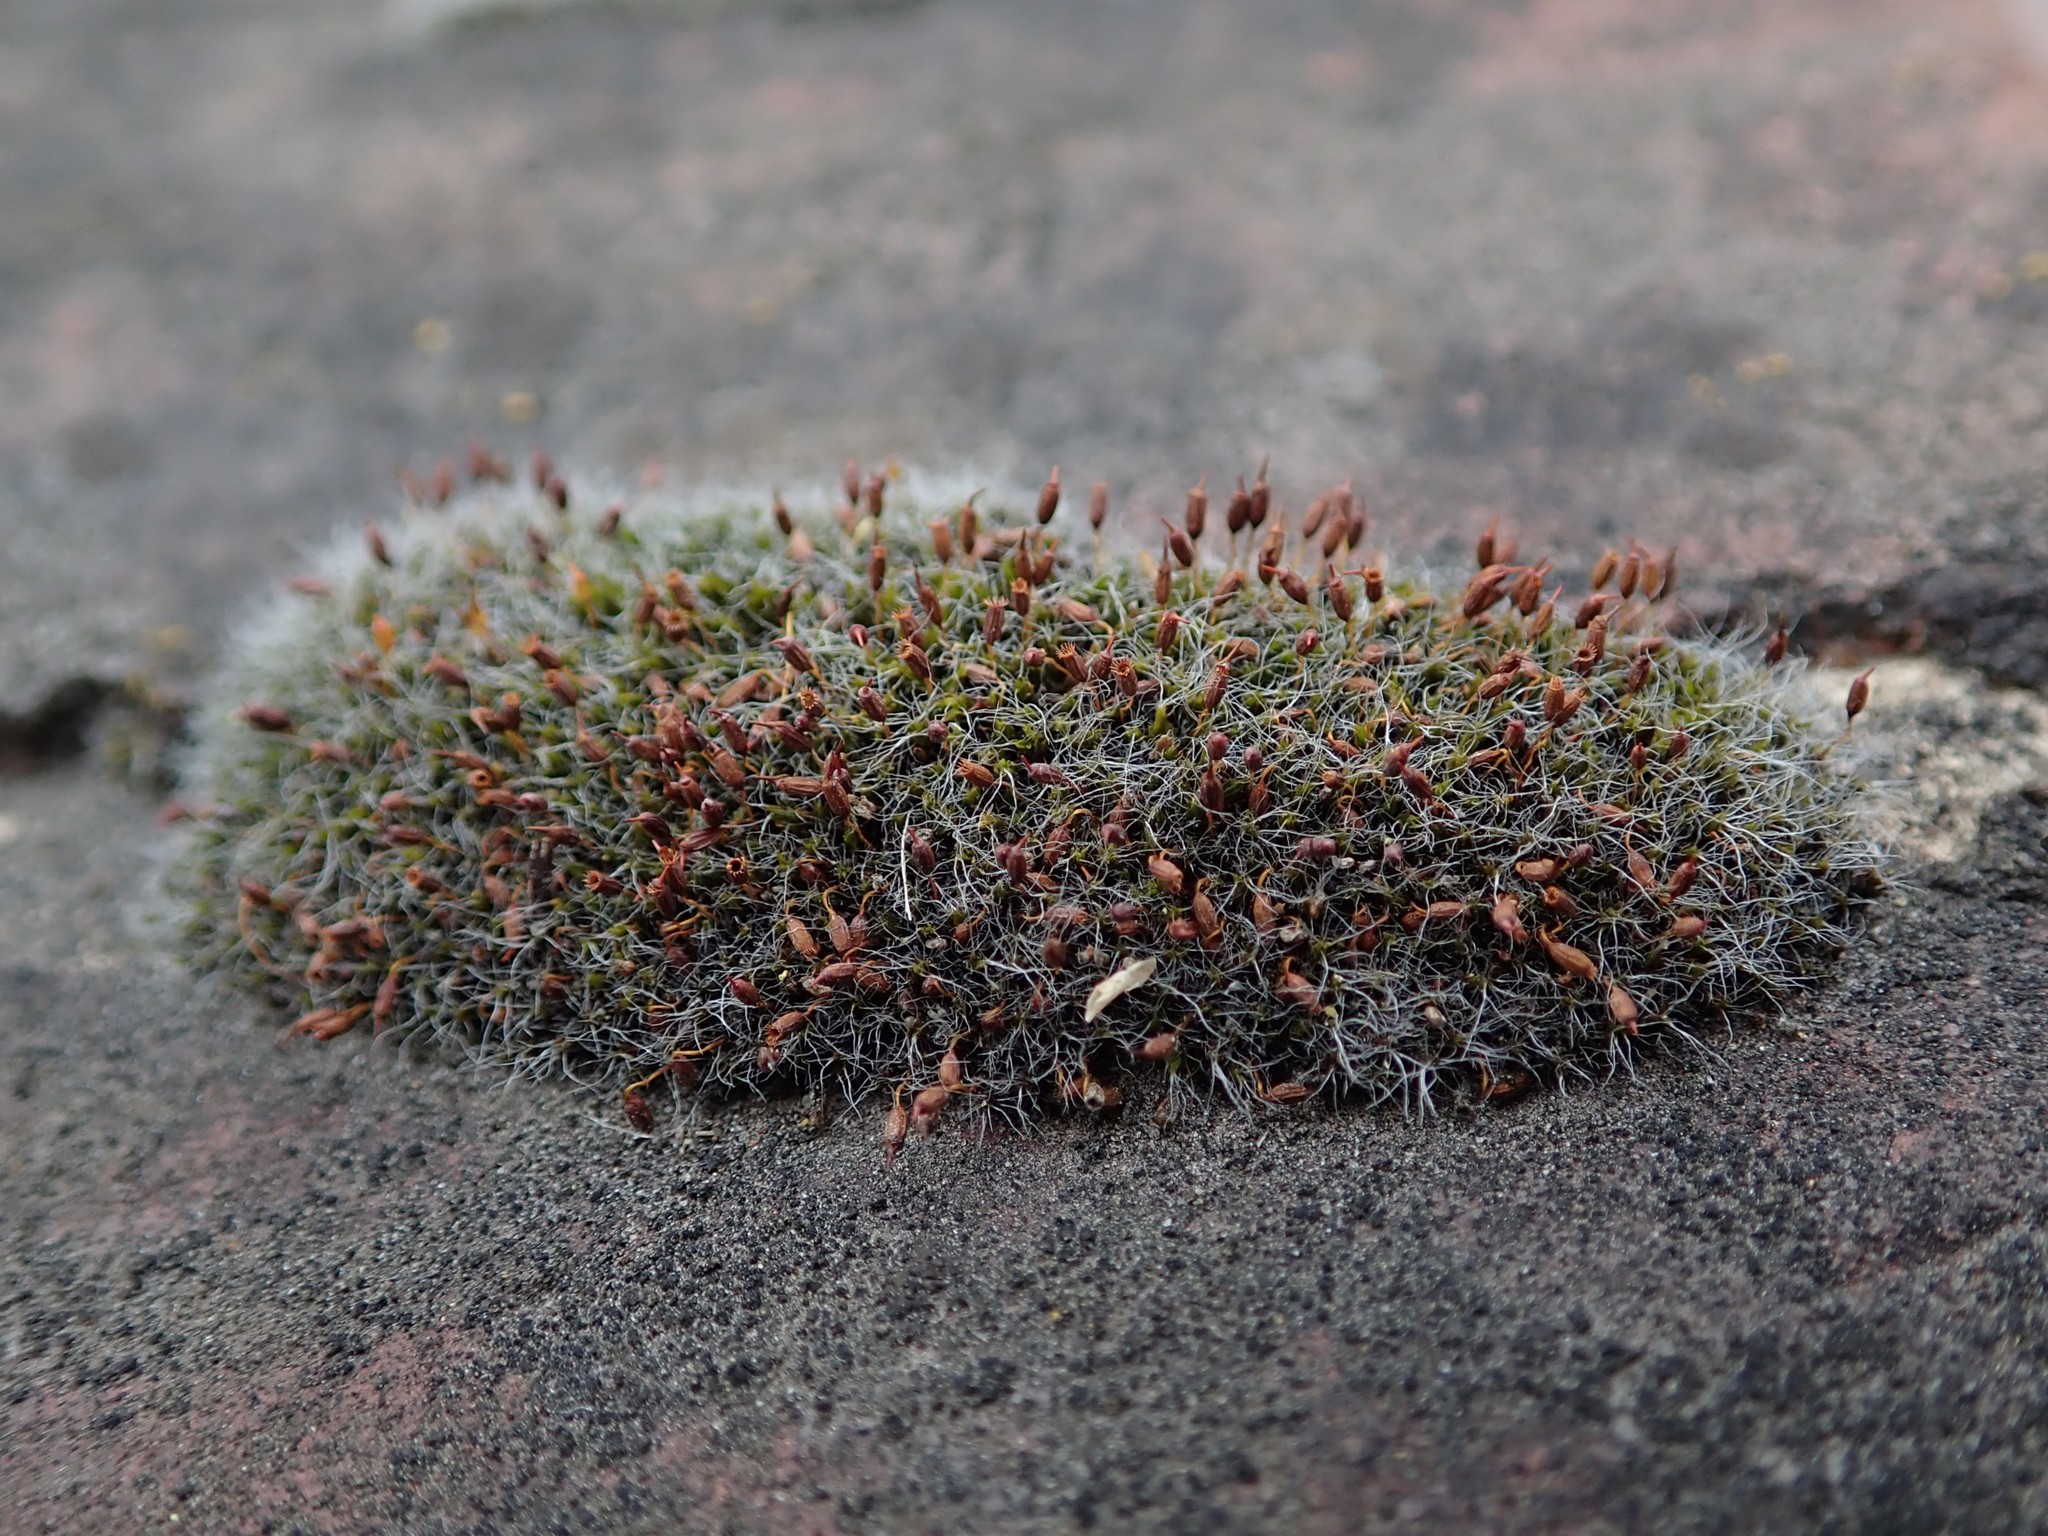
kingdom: Plantae
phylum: Bryophyta
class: Bryopsida
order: Grimmiales
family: Grimmiaceae
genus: Grimmia
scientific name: Grimmia pulvinata
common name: Grey-cushioned grimmia
